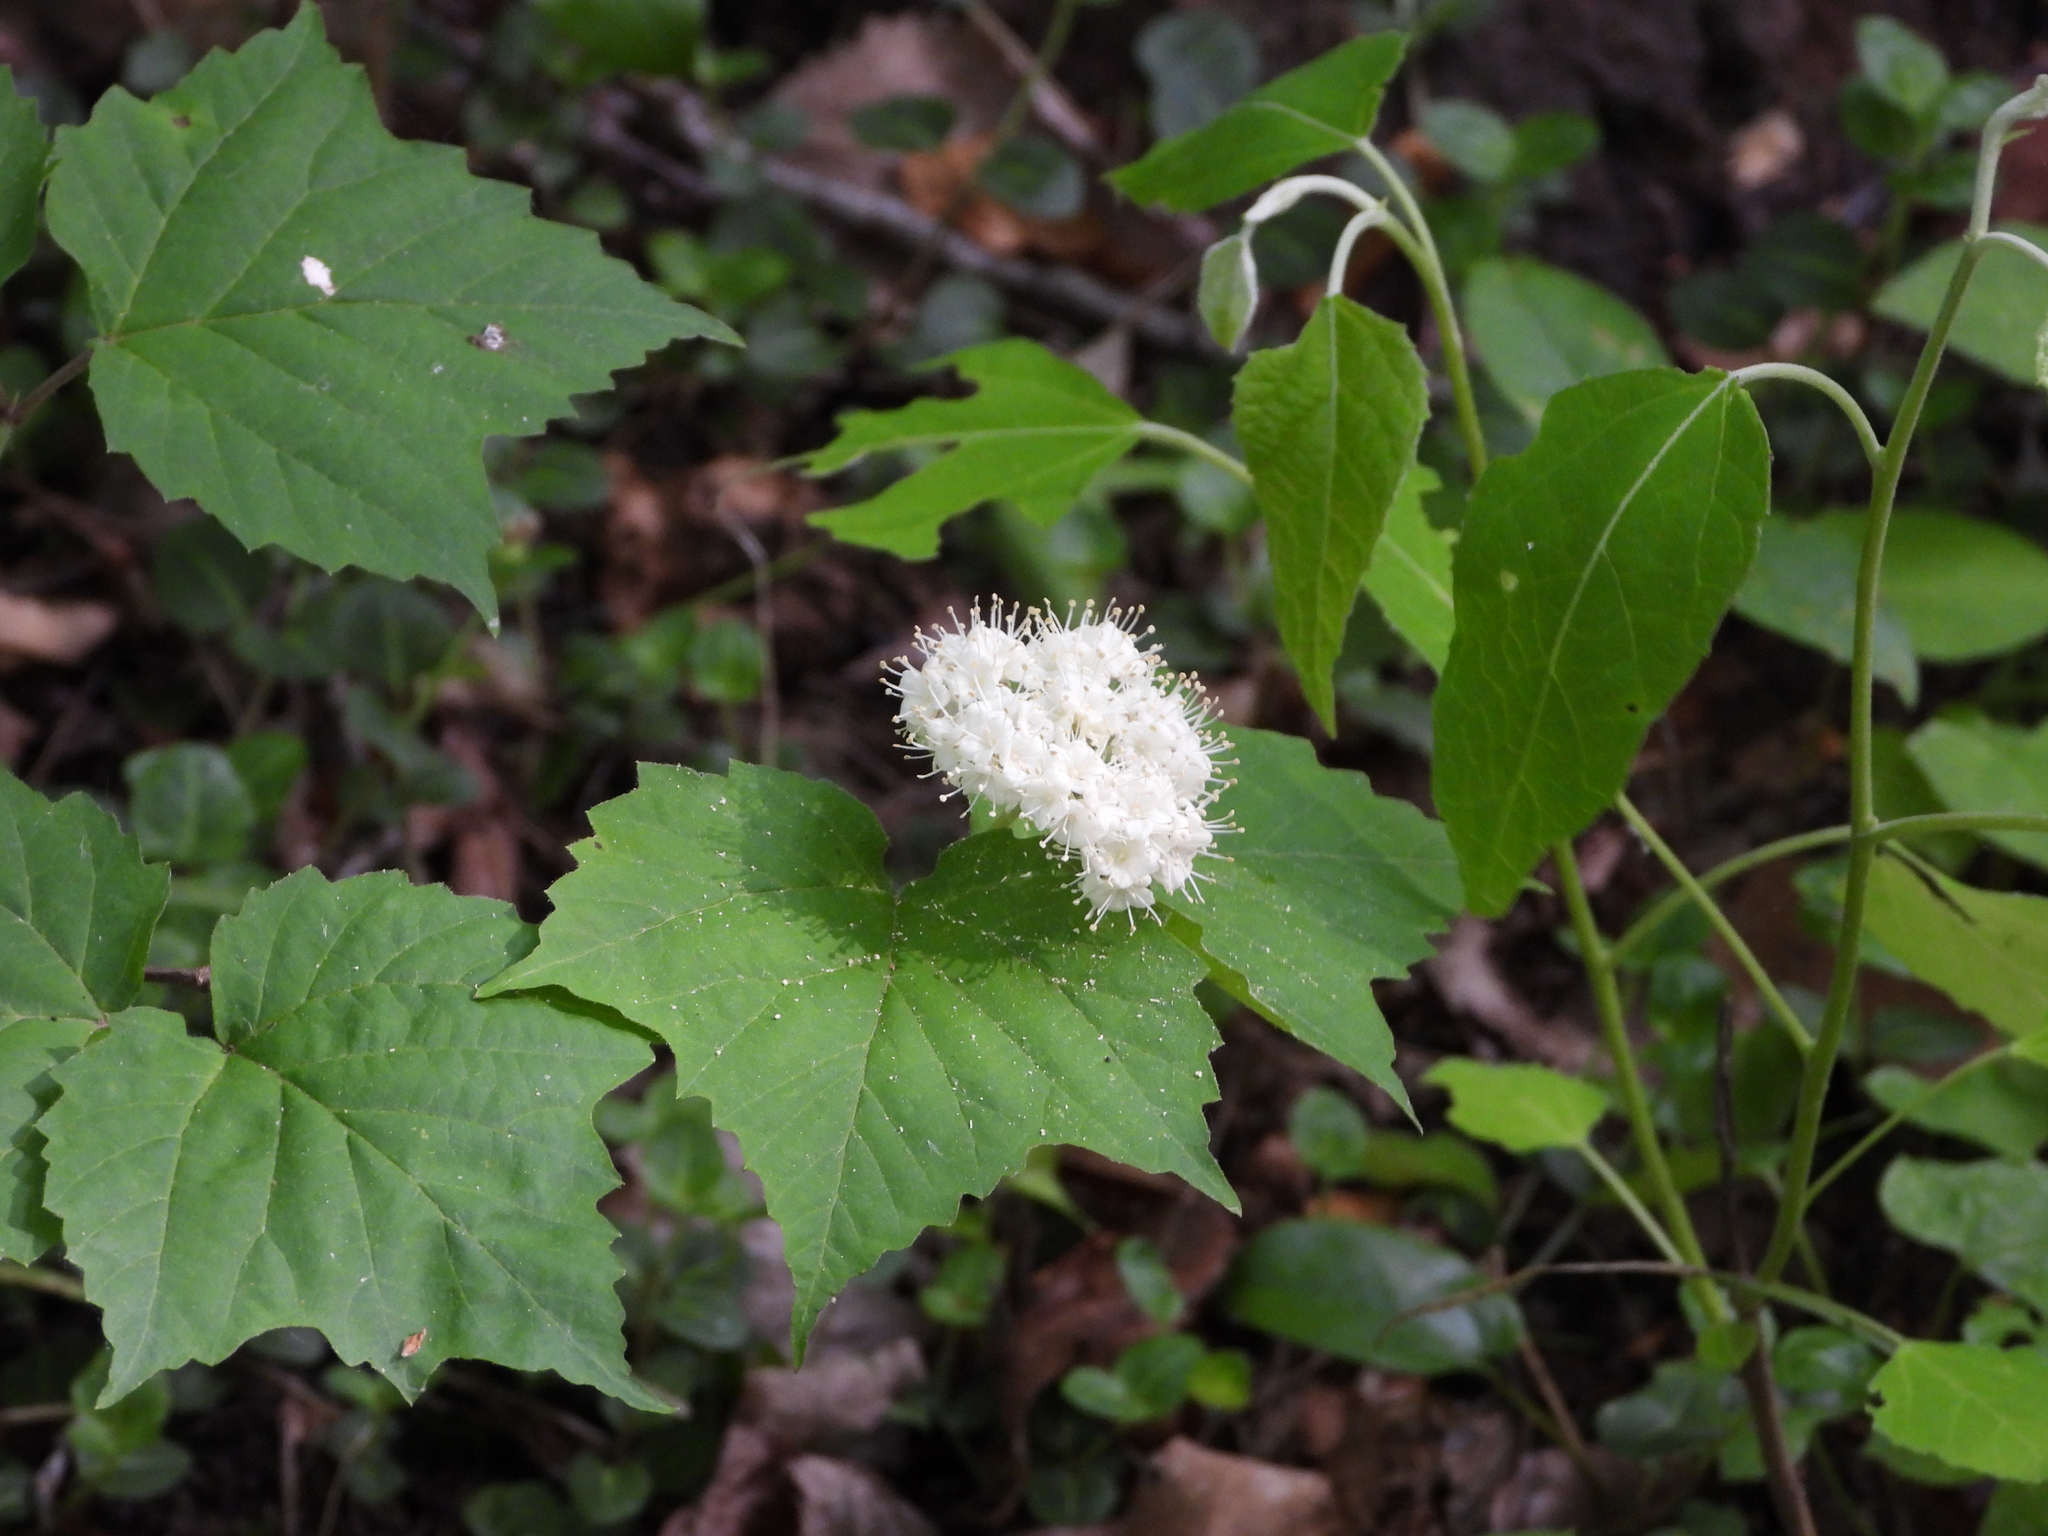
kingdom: Plantae
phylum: Tracheophyta
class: Magnoliopsida
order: Dipsacales
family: Viburnaceae
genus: Viburnum
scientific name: Viburnum acerifolium
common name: Dockmackie
